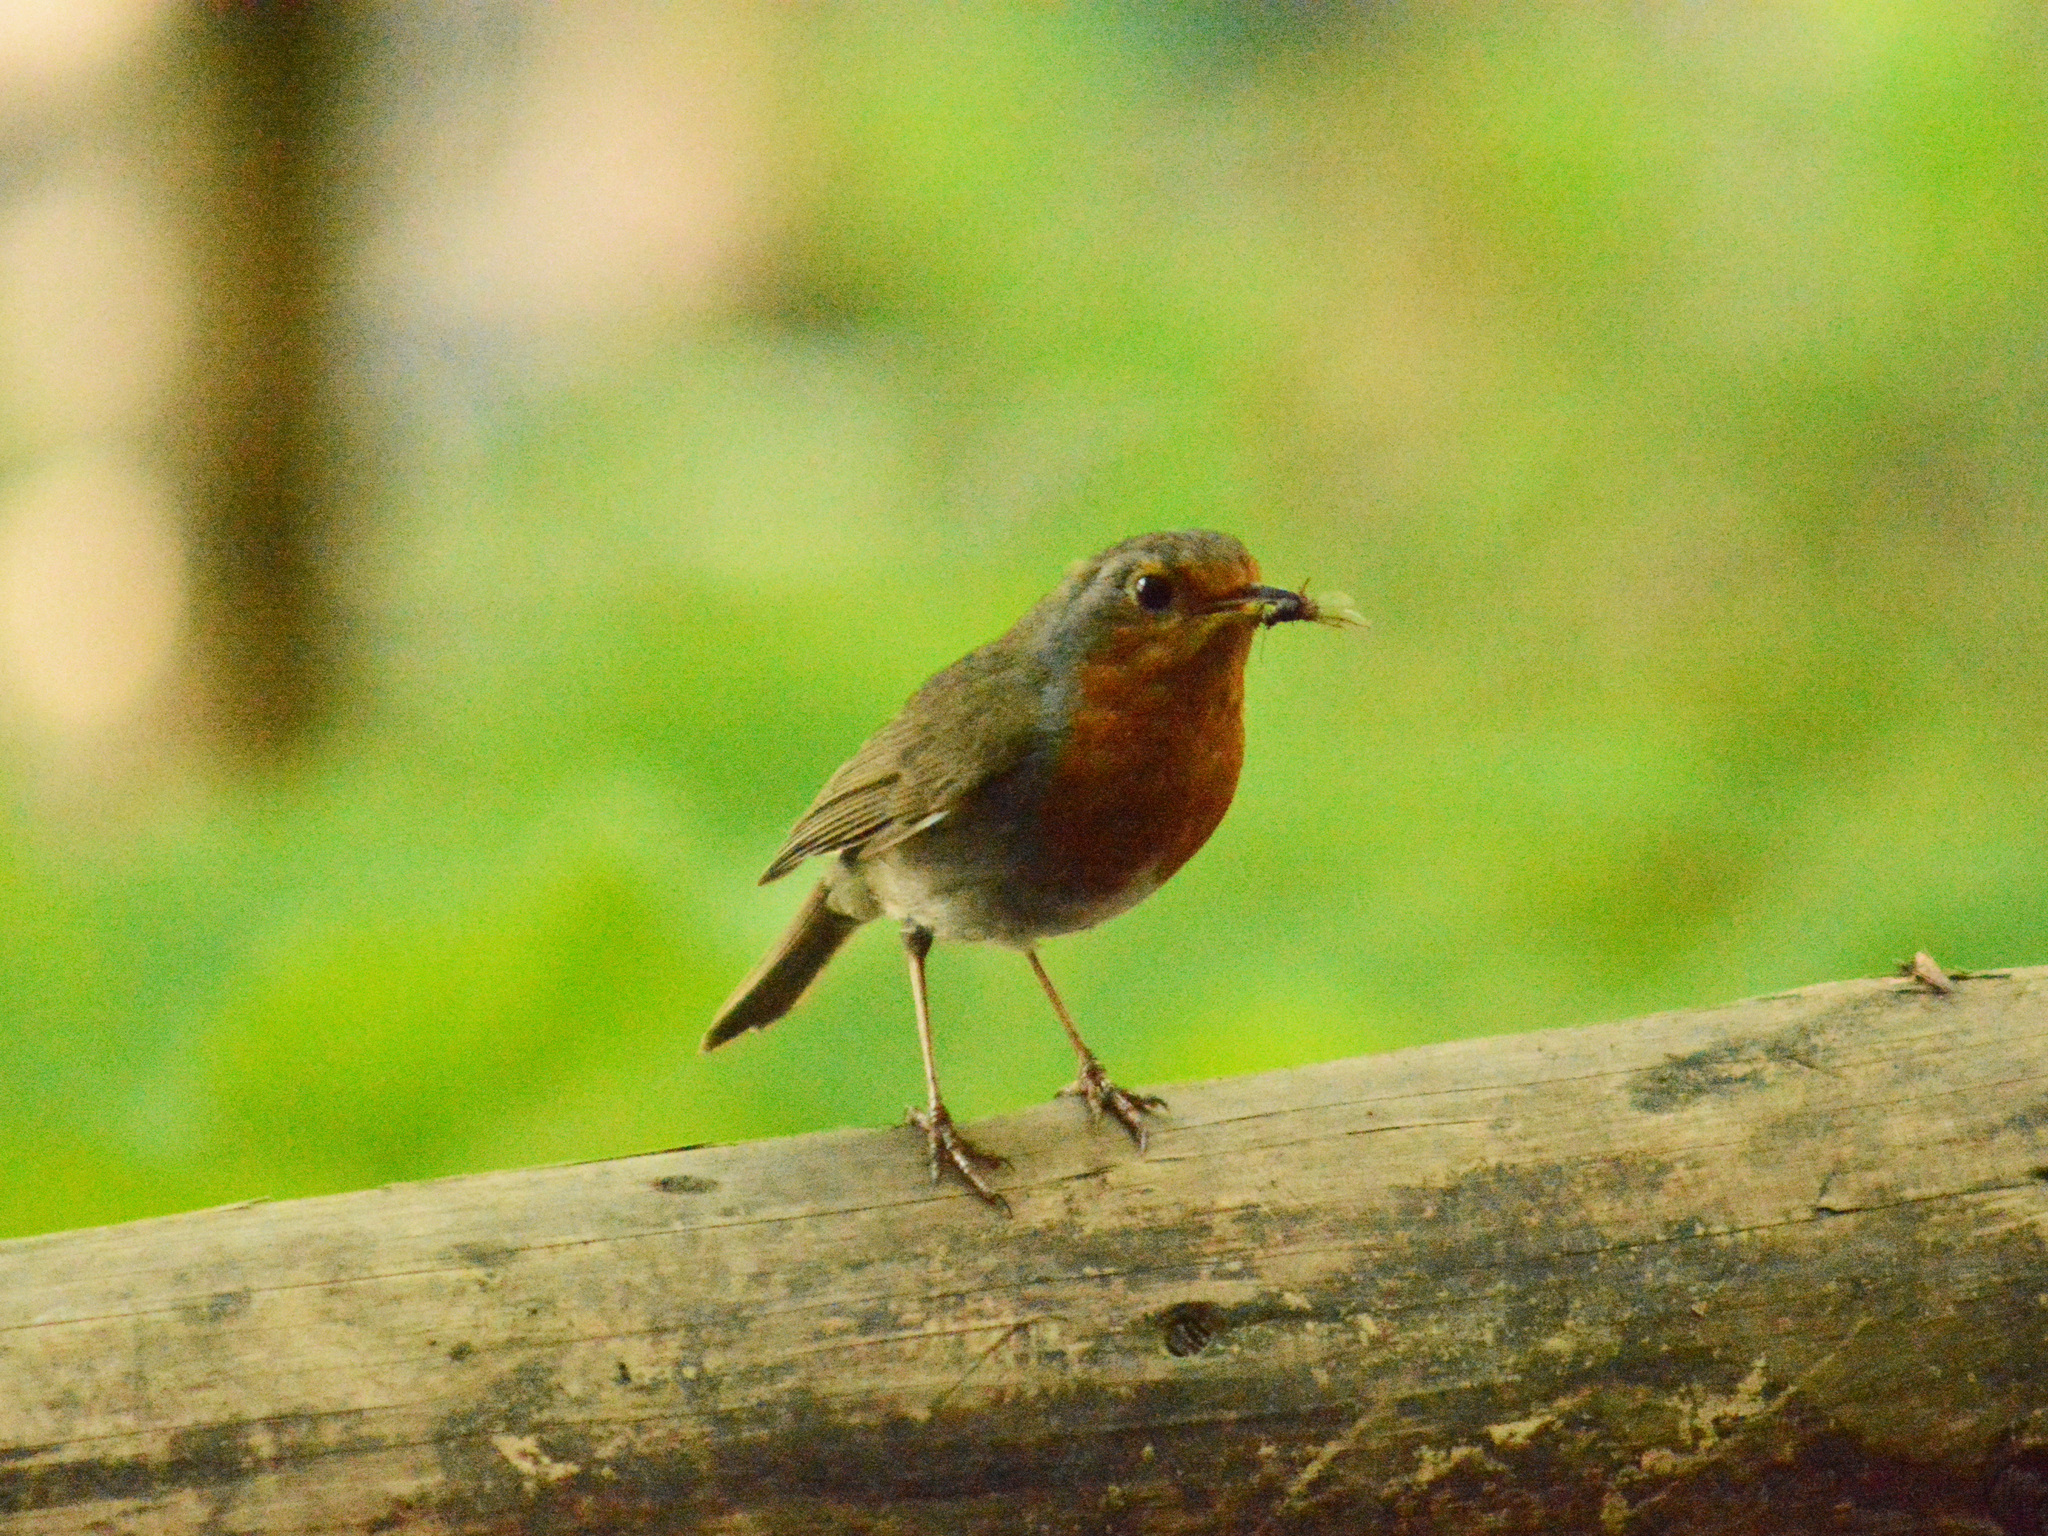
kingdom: Animalia
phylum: Chordata
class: Aves
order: Passeriformes
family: Muscicapidae
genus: Erithacus
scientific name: Erithacus rubecula
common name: European robin
